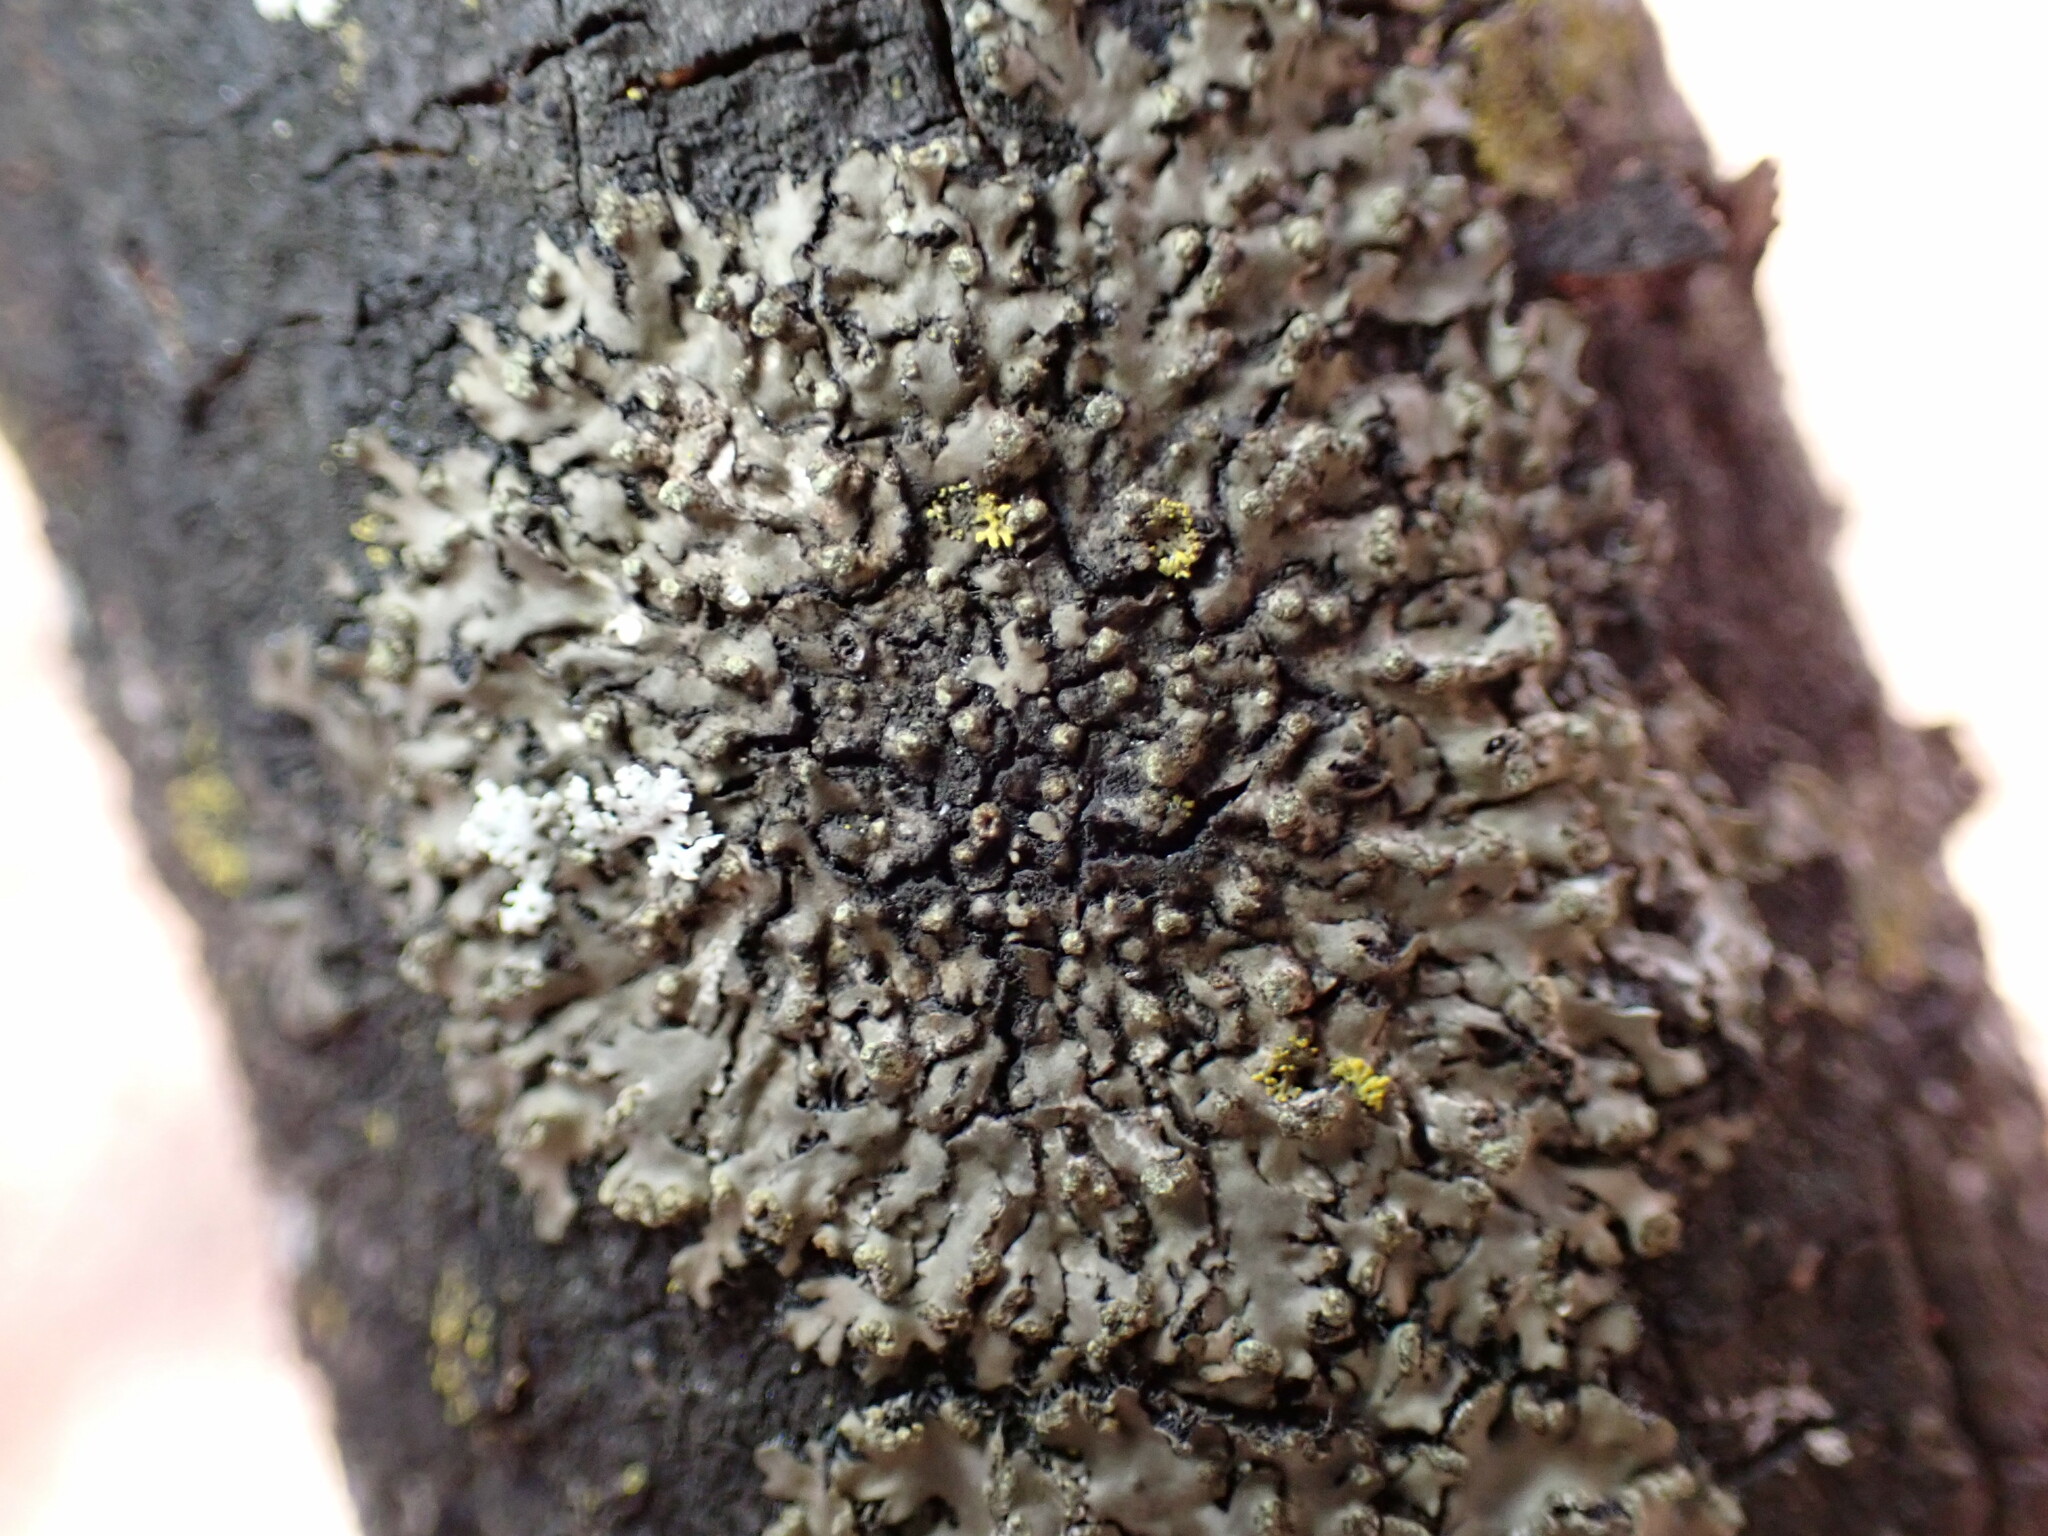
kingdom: Fungi
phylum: Ascomycota
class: Lecanoromycetes
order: Caliciales
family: Physciaceae
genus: Phaeophyscia
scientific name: Phaeophyscia adiastola
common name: Powder-tipped shadow lichen
